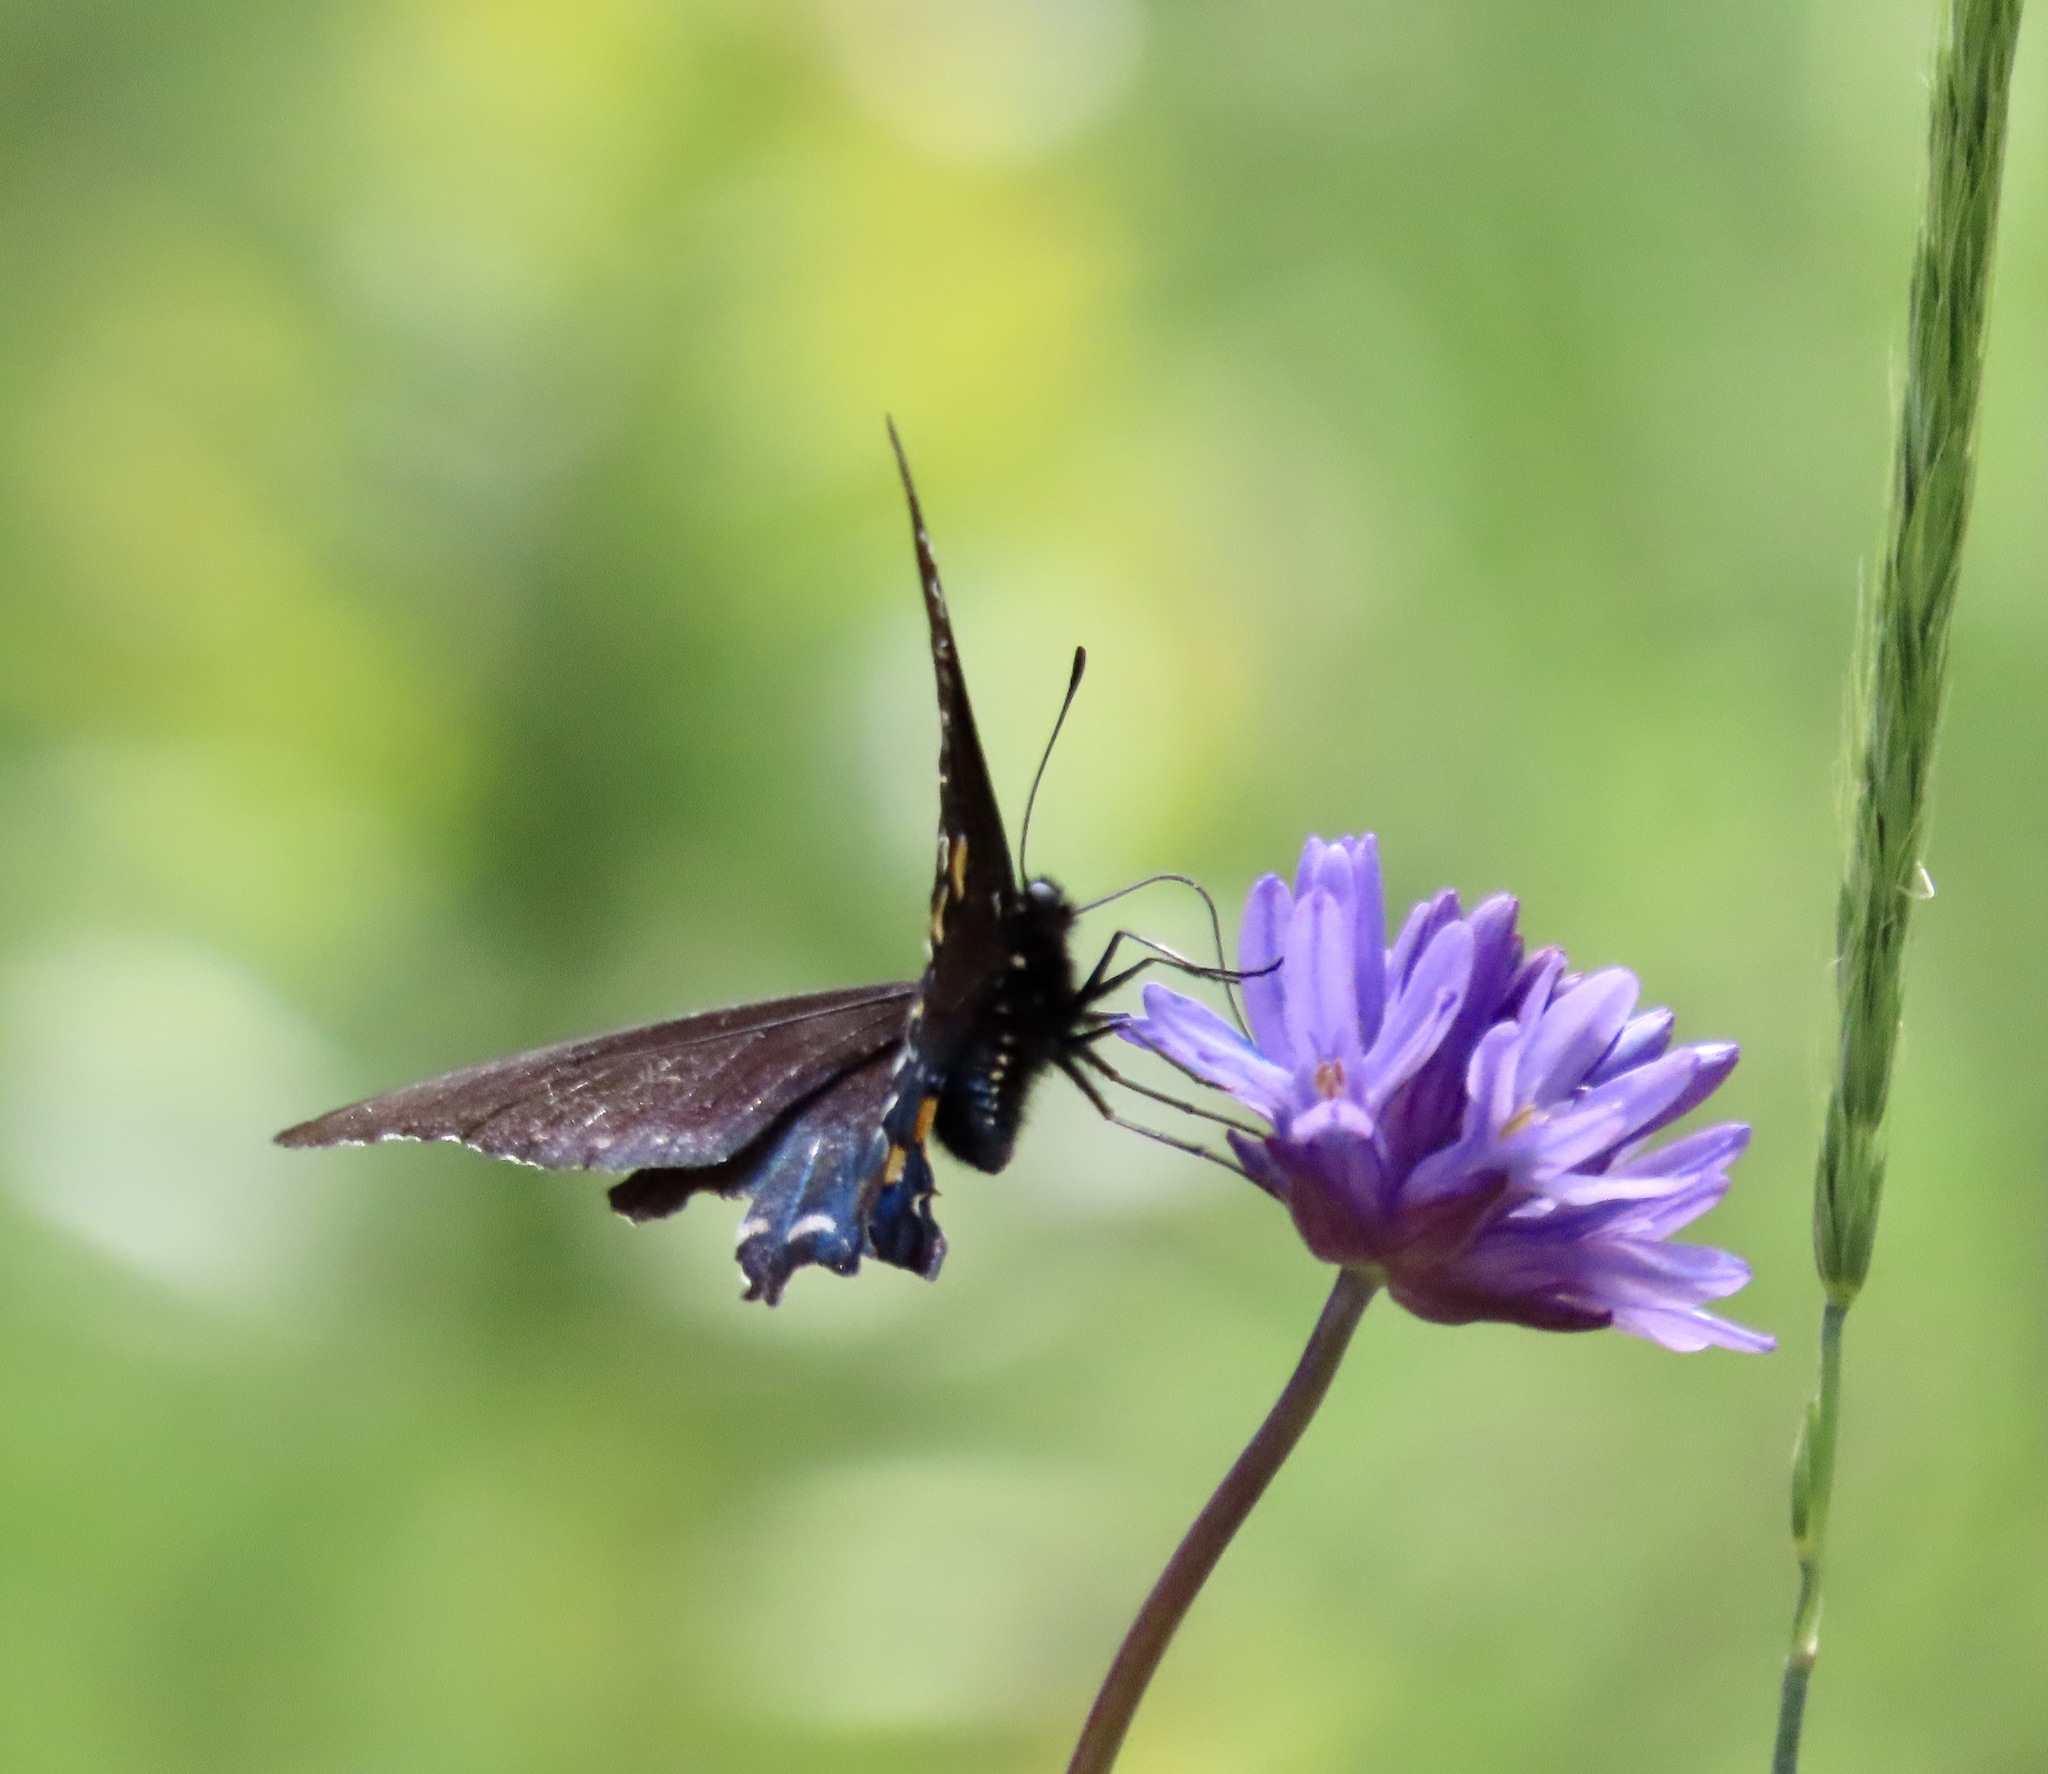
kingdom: Animalia
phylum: Arthropoda
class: Insecta
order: Lepidoptera
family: Papilionidae
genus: Battus
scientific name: Battus philenor
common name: Pipevine swallowtail
